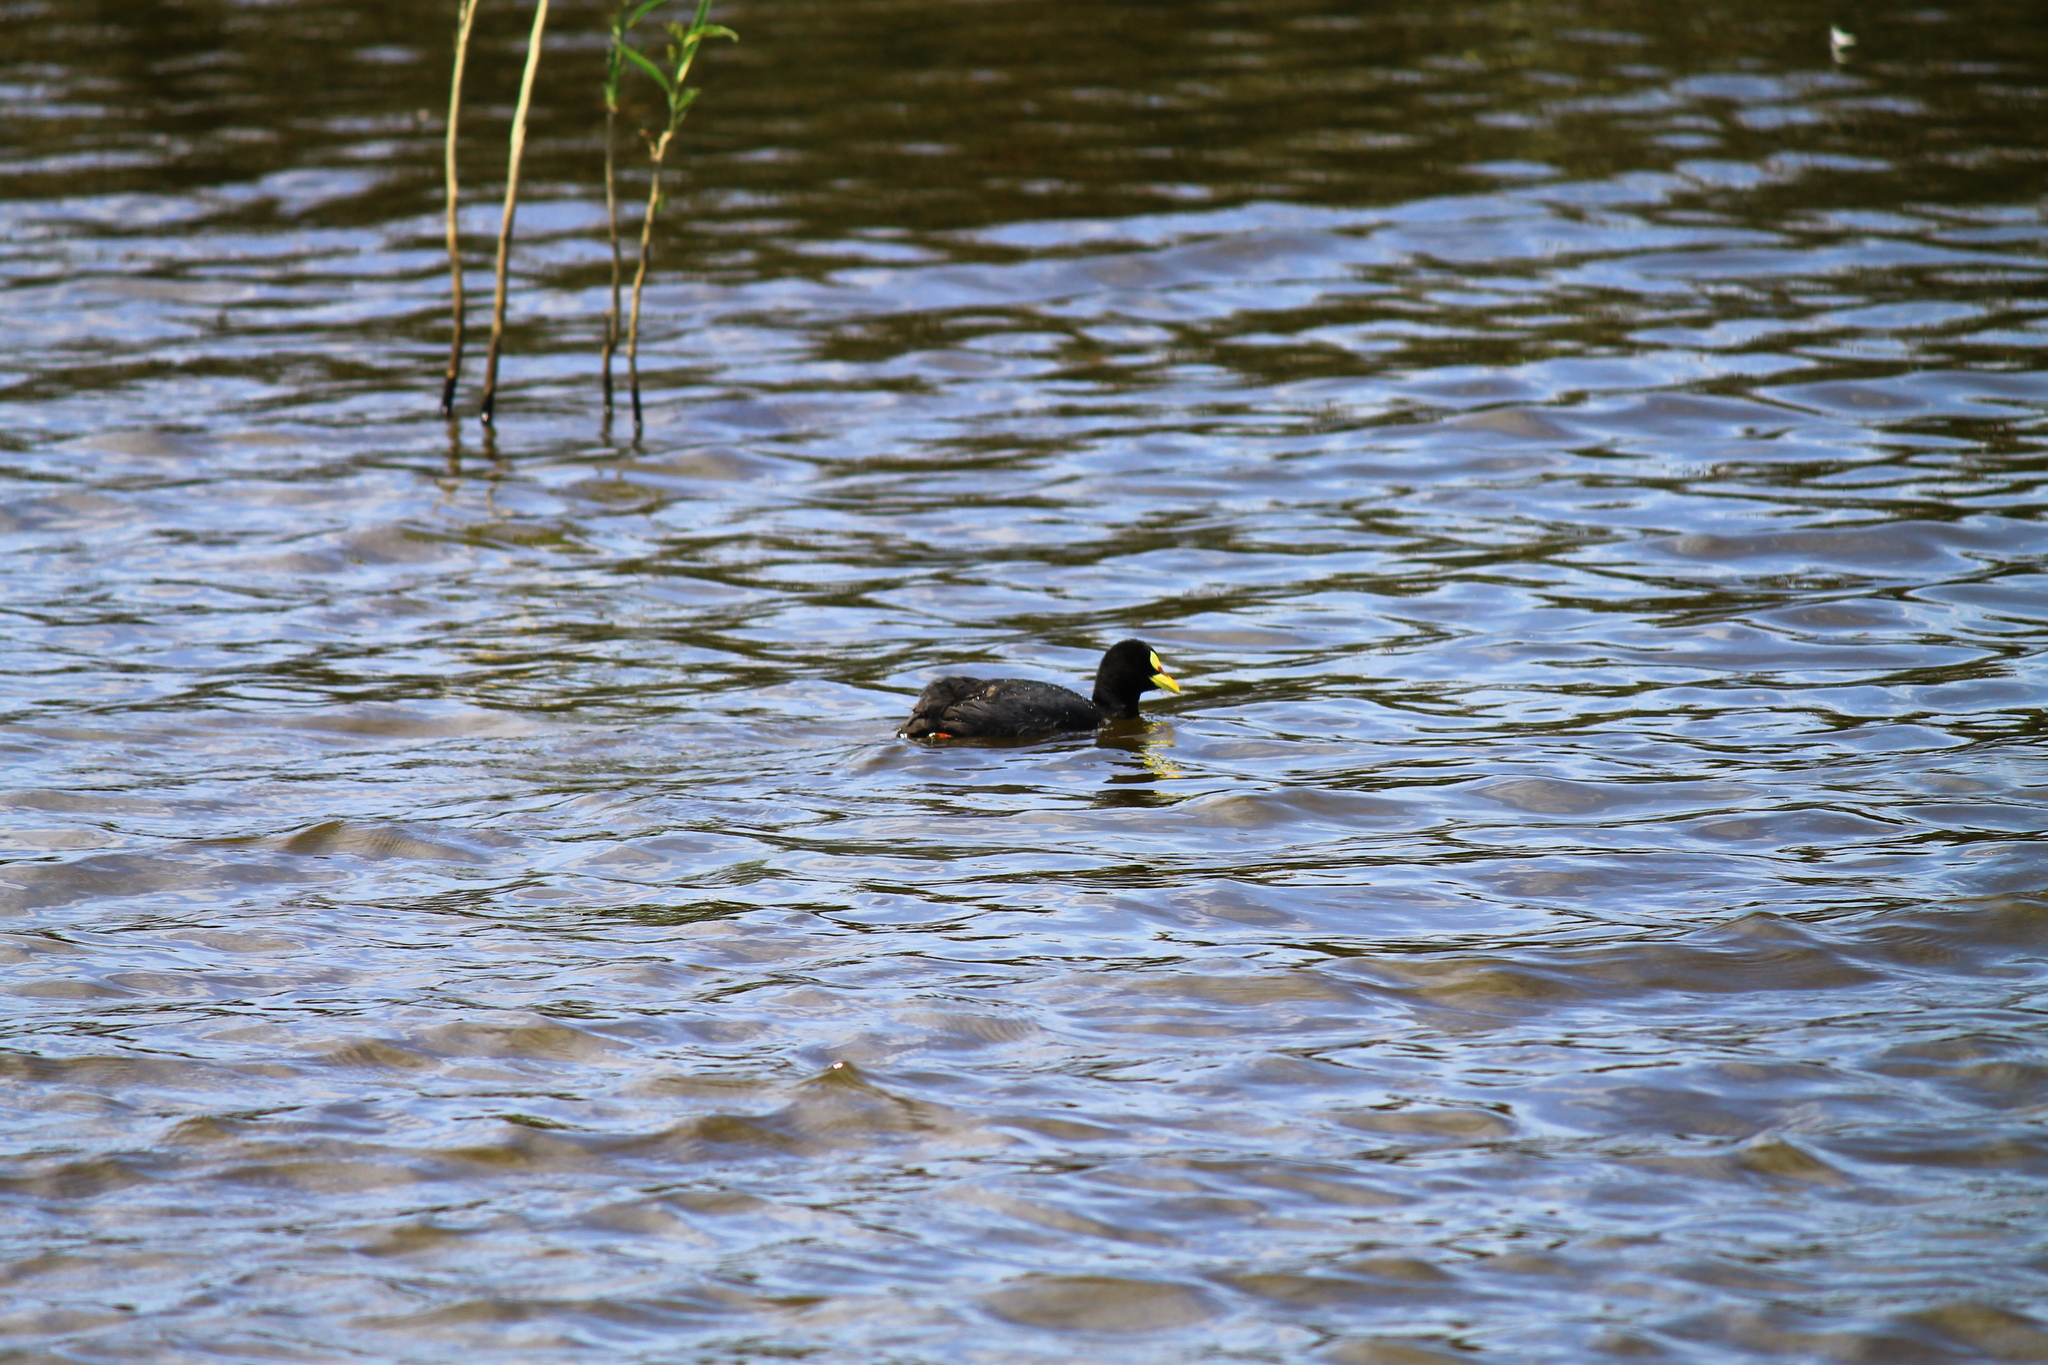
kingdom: Animalia
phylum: Chordata
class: Aves
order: Gruiformes
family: Rallidae
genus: Fulica
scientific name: Fulica armillata
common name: Red-gartered coot
